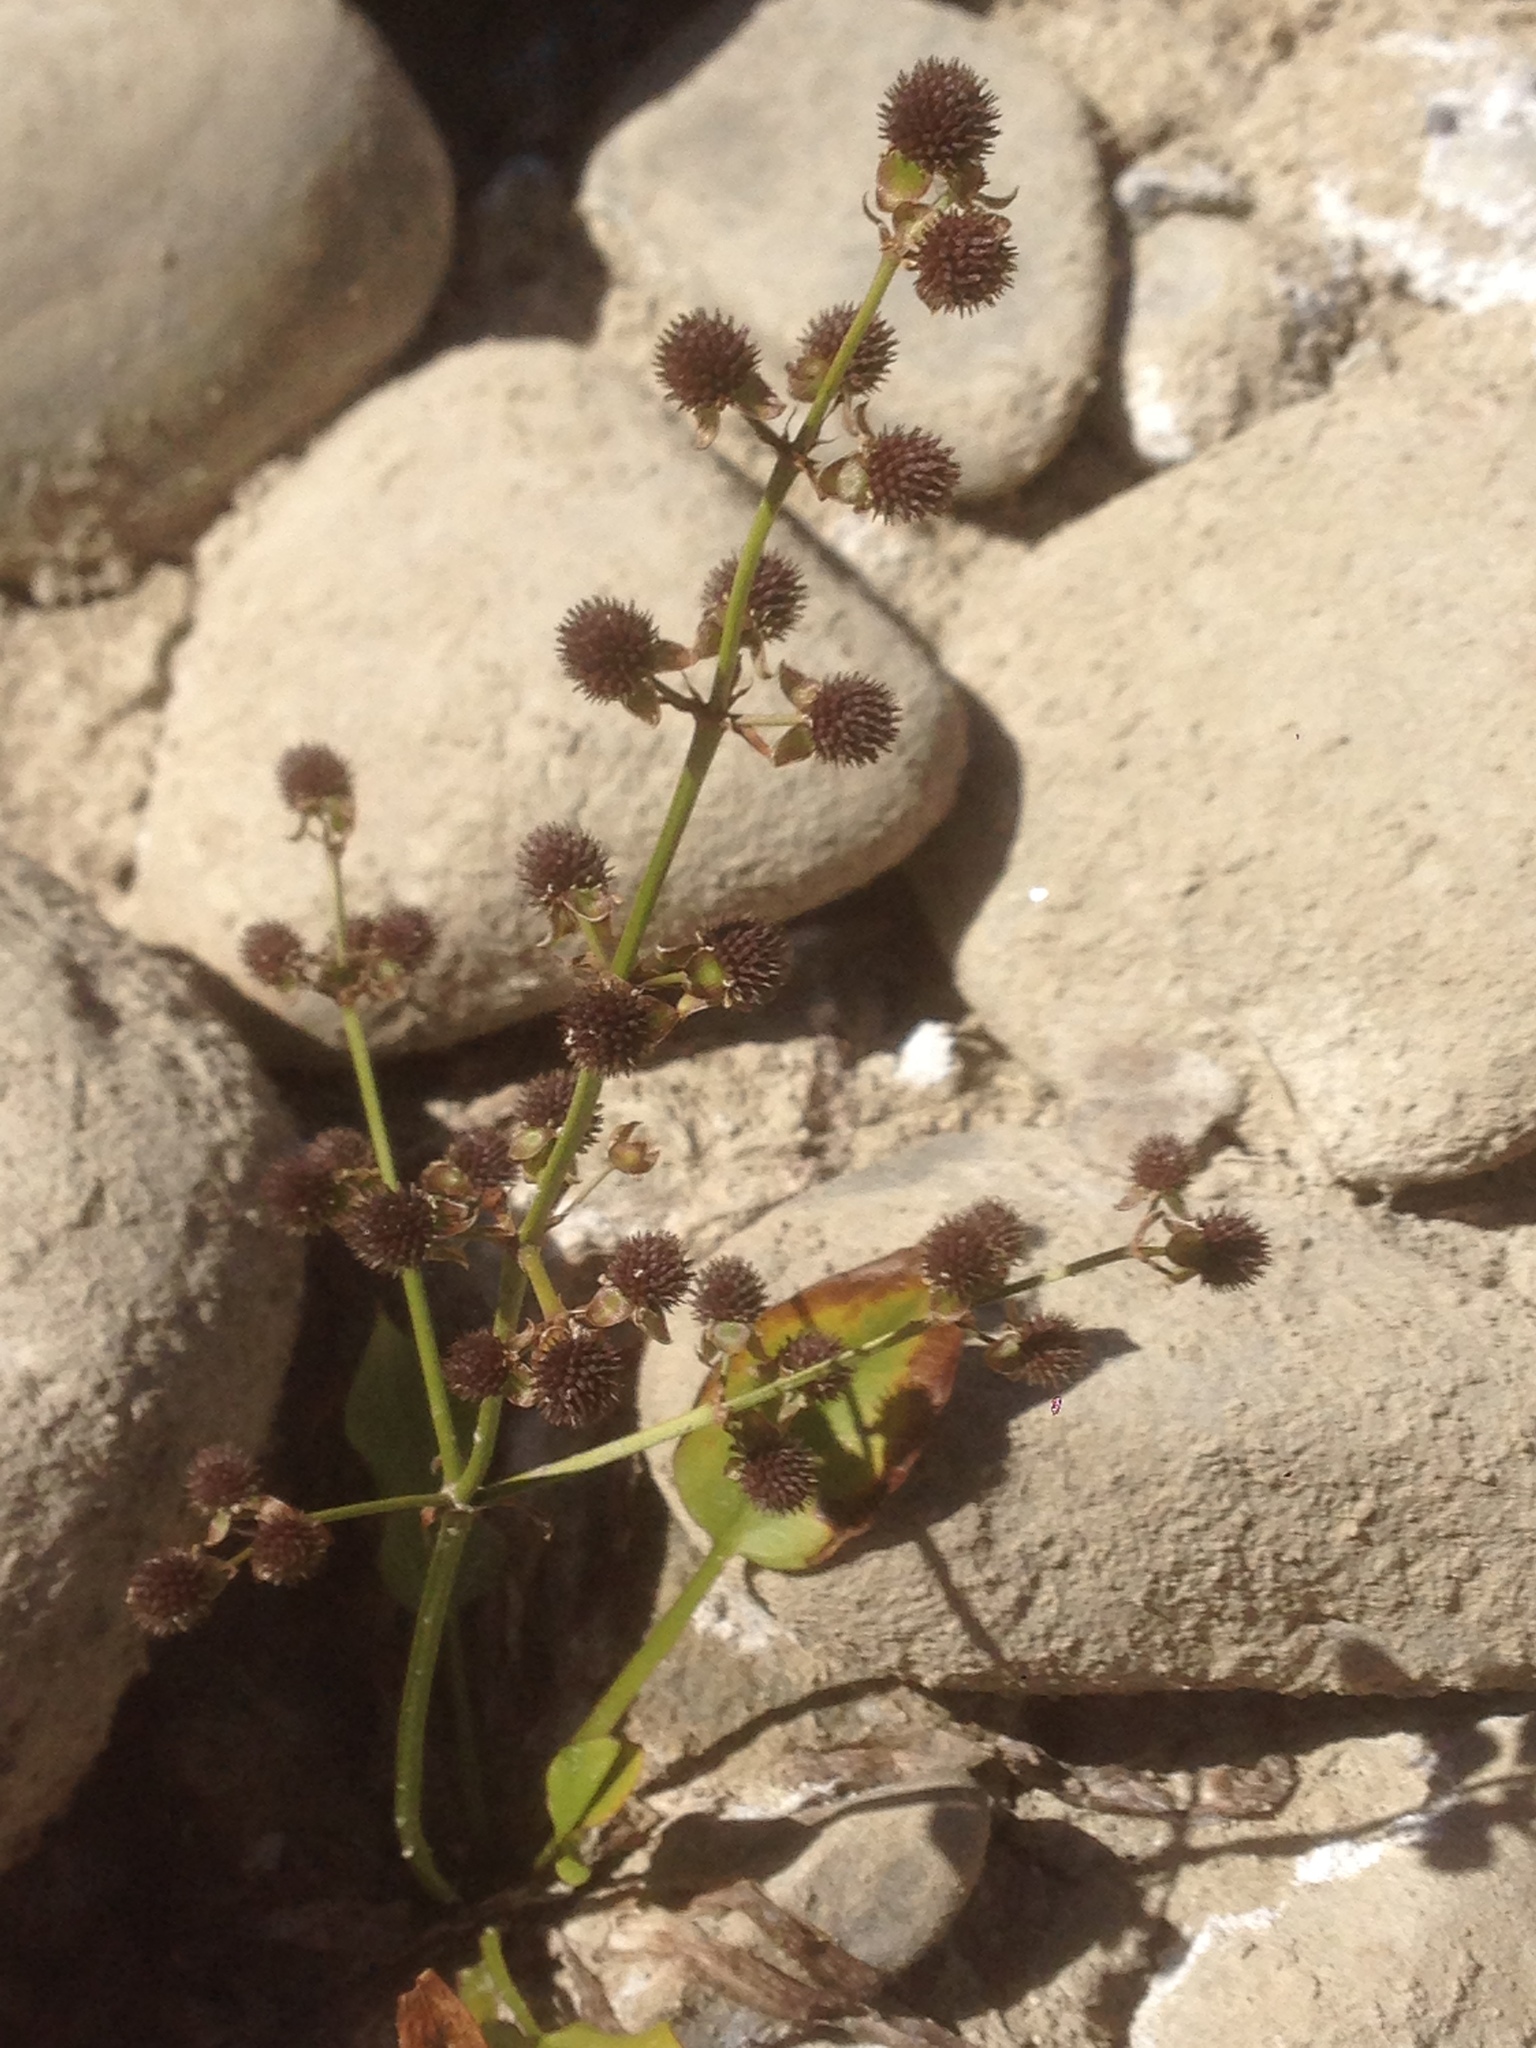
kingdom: Plantae
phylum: Tracheophyta
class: Liliopsida
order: Alismatales
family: Alismataceae
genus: Echinodorus
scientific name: Echinodorus berteroi
